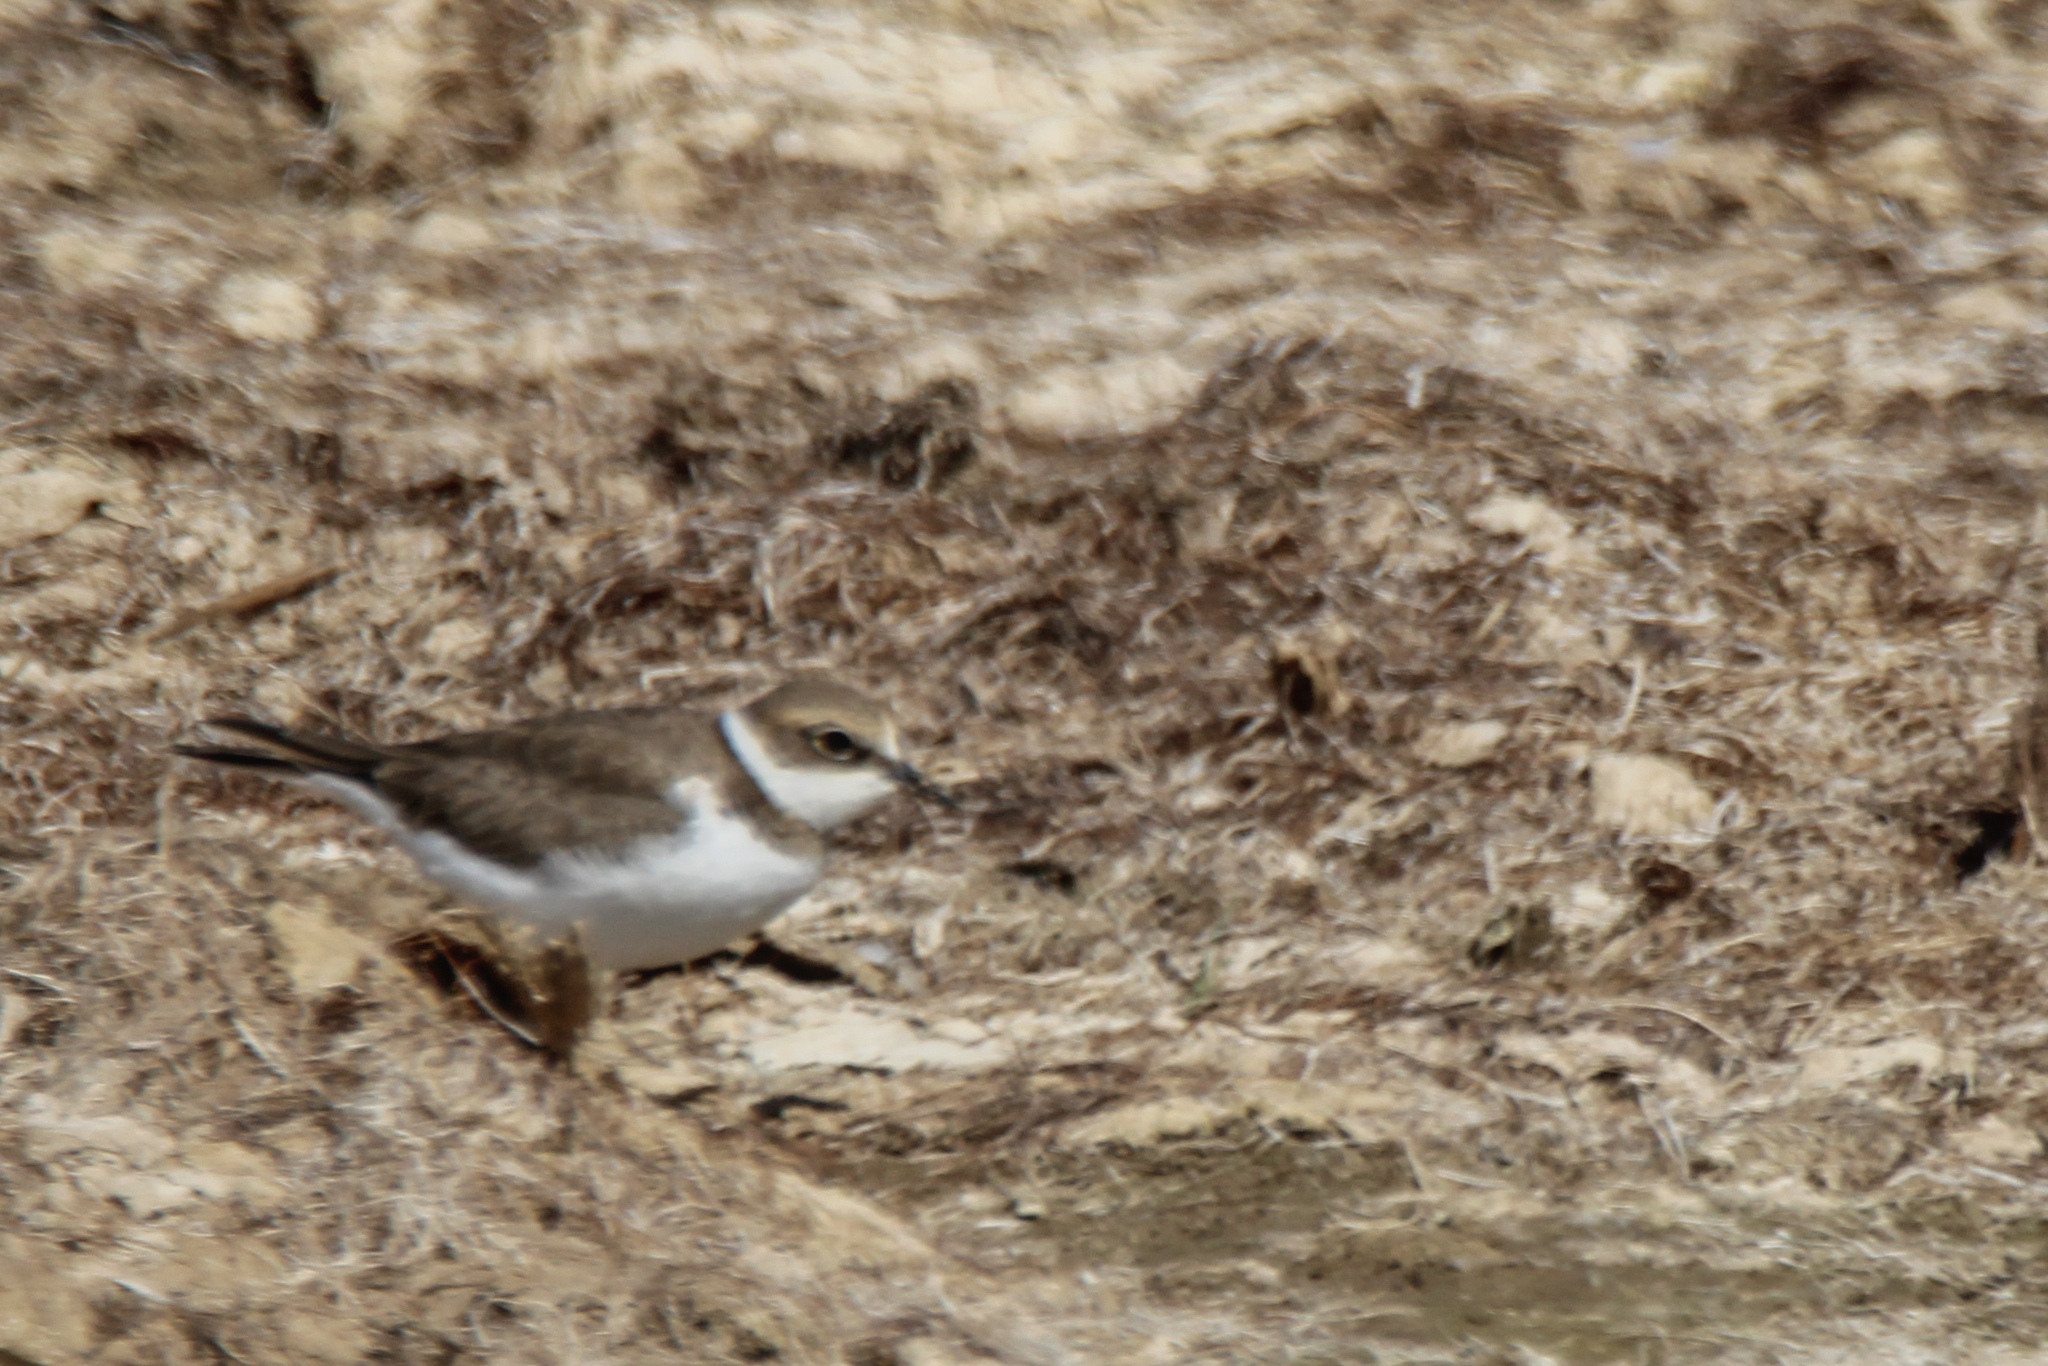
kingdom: Animalia
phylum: Chordata
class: Aves
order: Charadriiformes
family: Charadriidae
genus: Charadrius
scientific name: Charadrius dubius
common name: Little ringed plover
